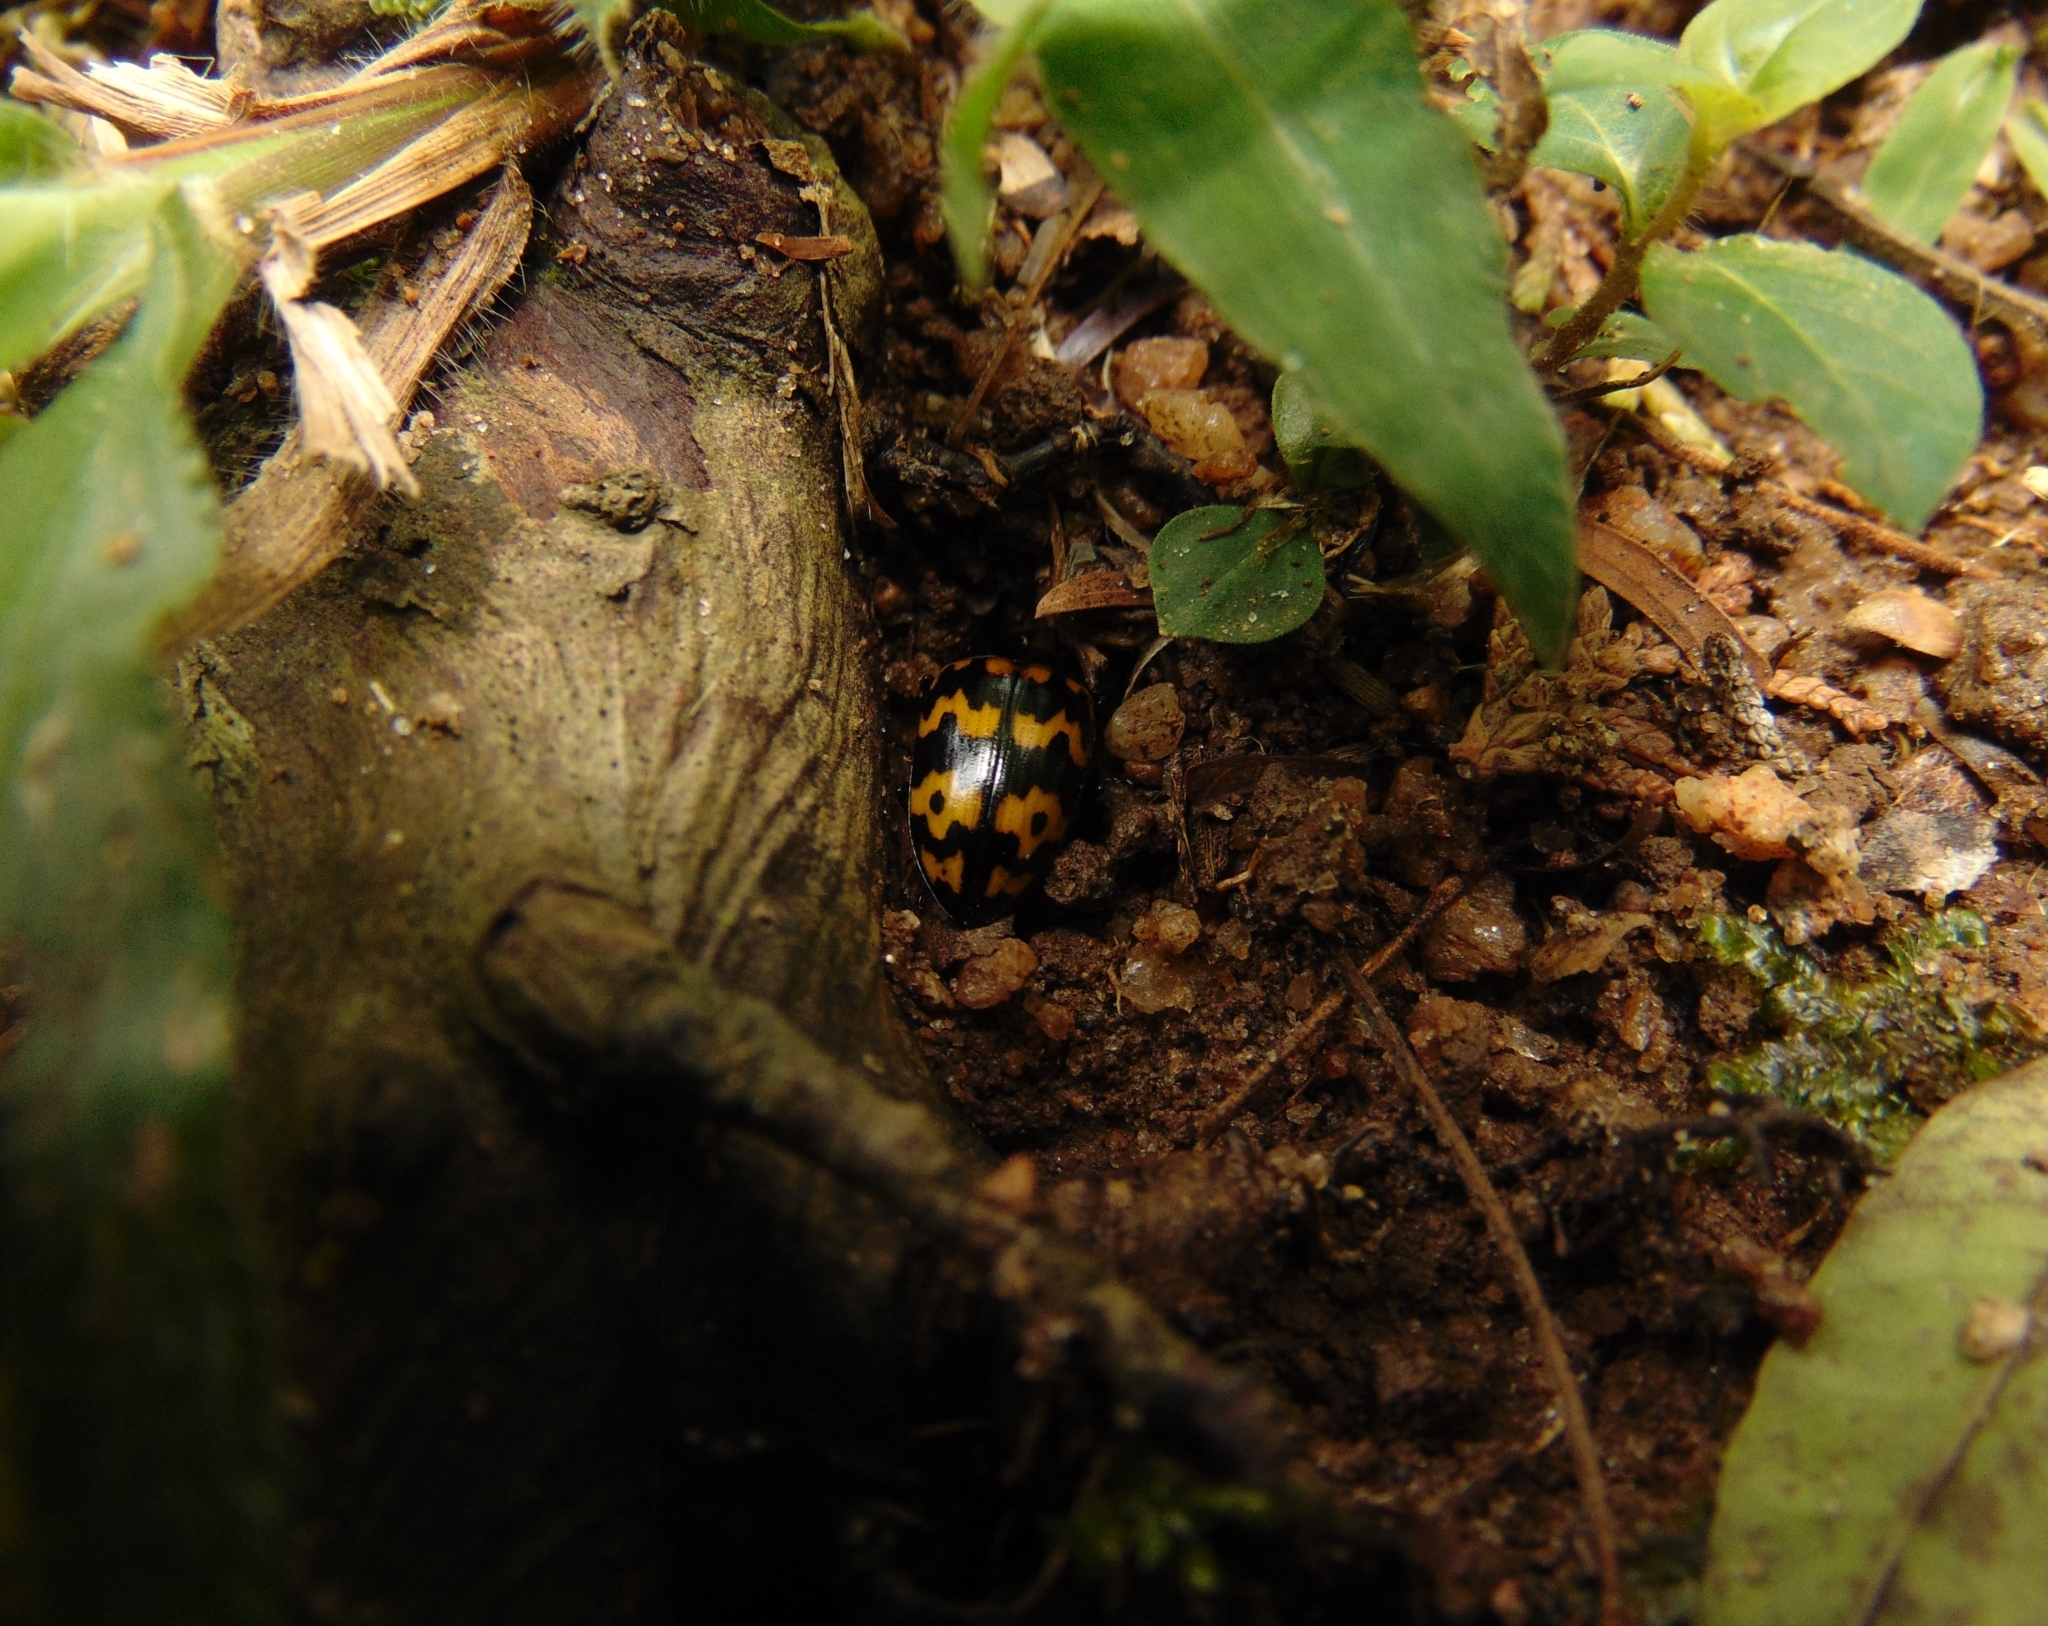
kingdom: Animalia
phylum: Arthropoda
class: Insecta
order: Coleoptera
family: Erotylidae
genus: Iphiclus
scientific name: Iphiclus
